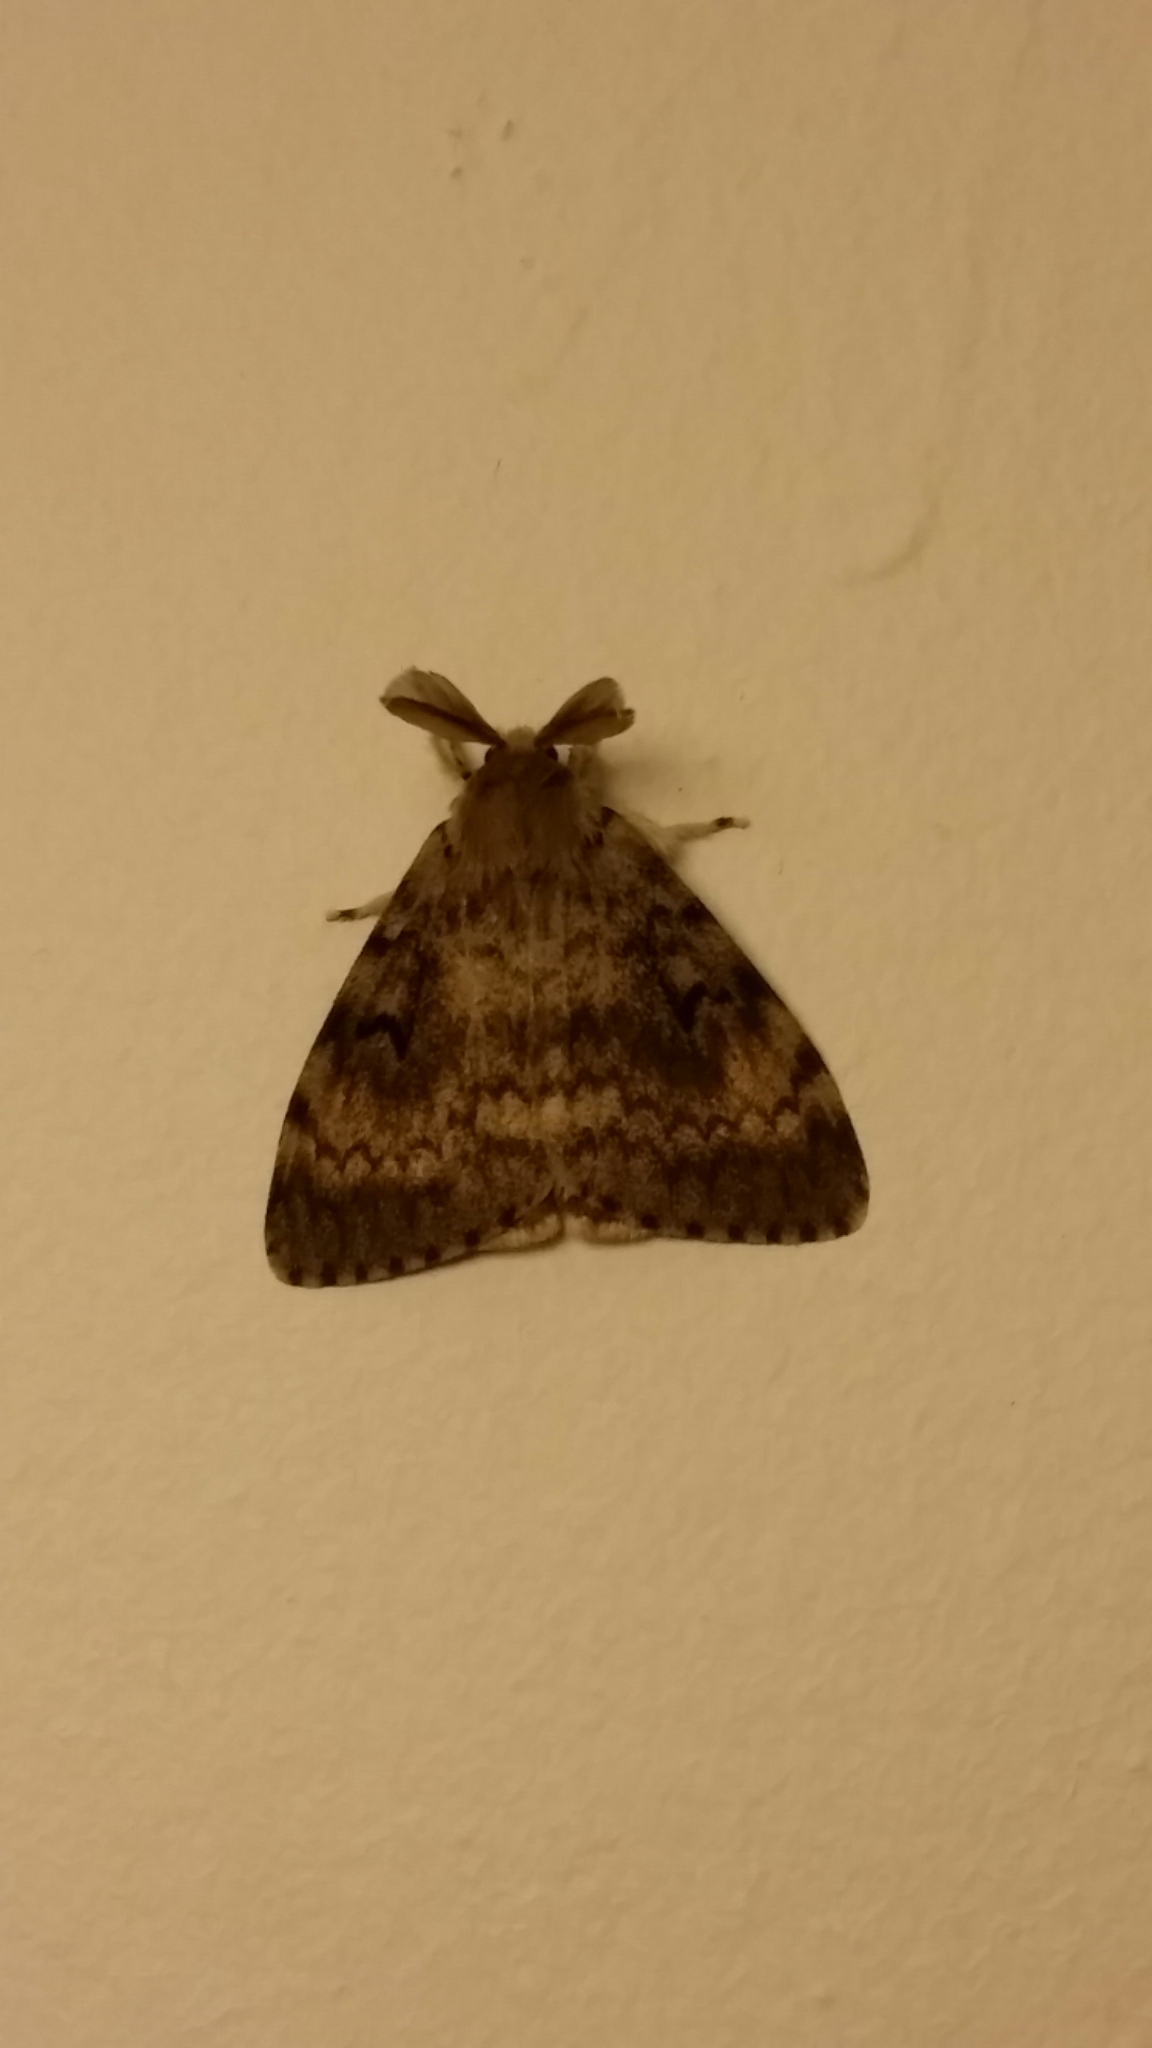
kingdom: Animalia
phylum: Arthropoda
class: Insecta
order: Lepidoptera
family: Erebidae
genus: Lymantria
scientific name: Lymantria dispar
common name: Gypsy moth
